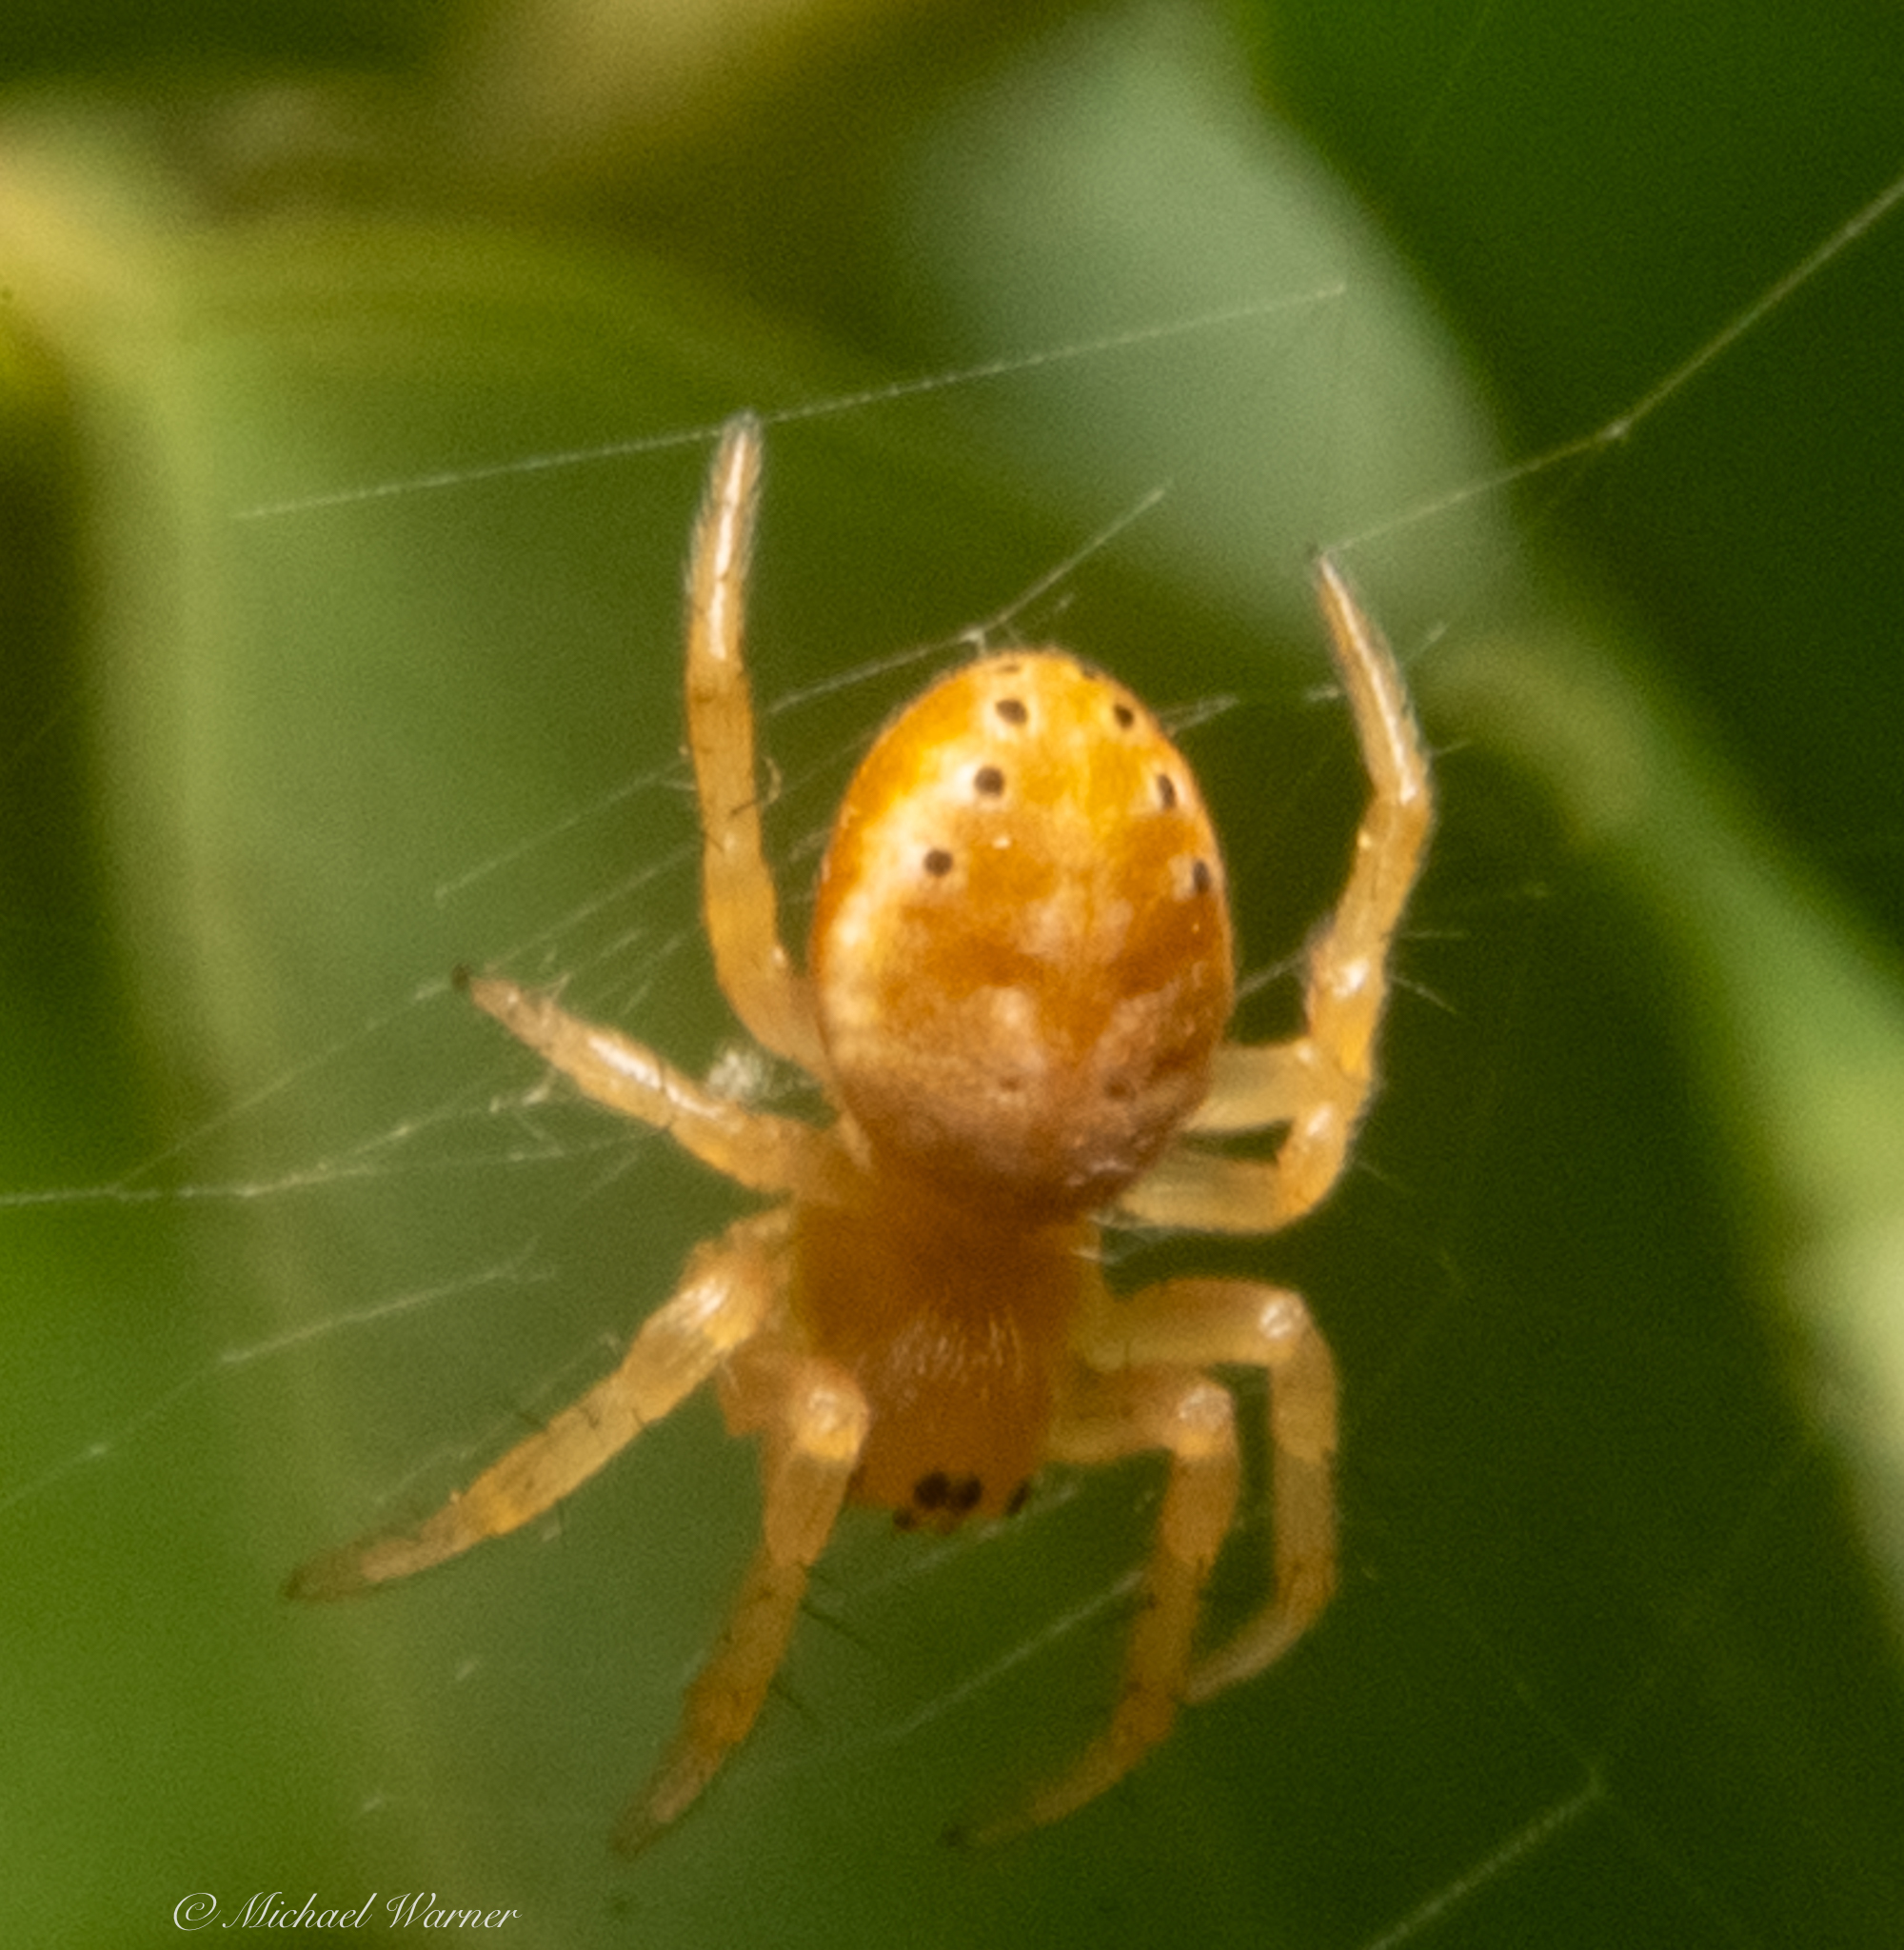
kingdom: Animalia
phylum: Arthropoda
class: Arachnida
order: Araneae
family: Araneidae
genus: Araniella
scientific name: Araniella displicata
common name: Sixspotted orb weaver
